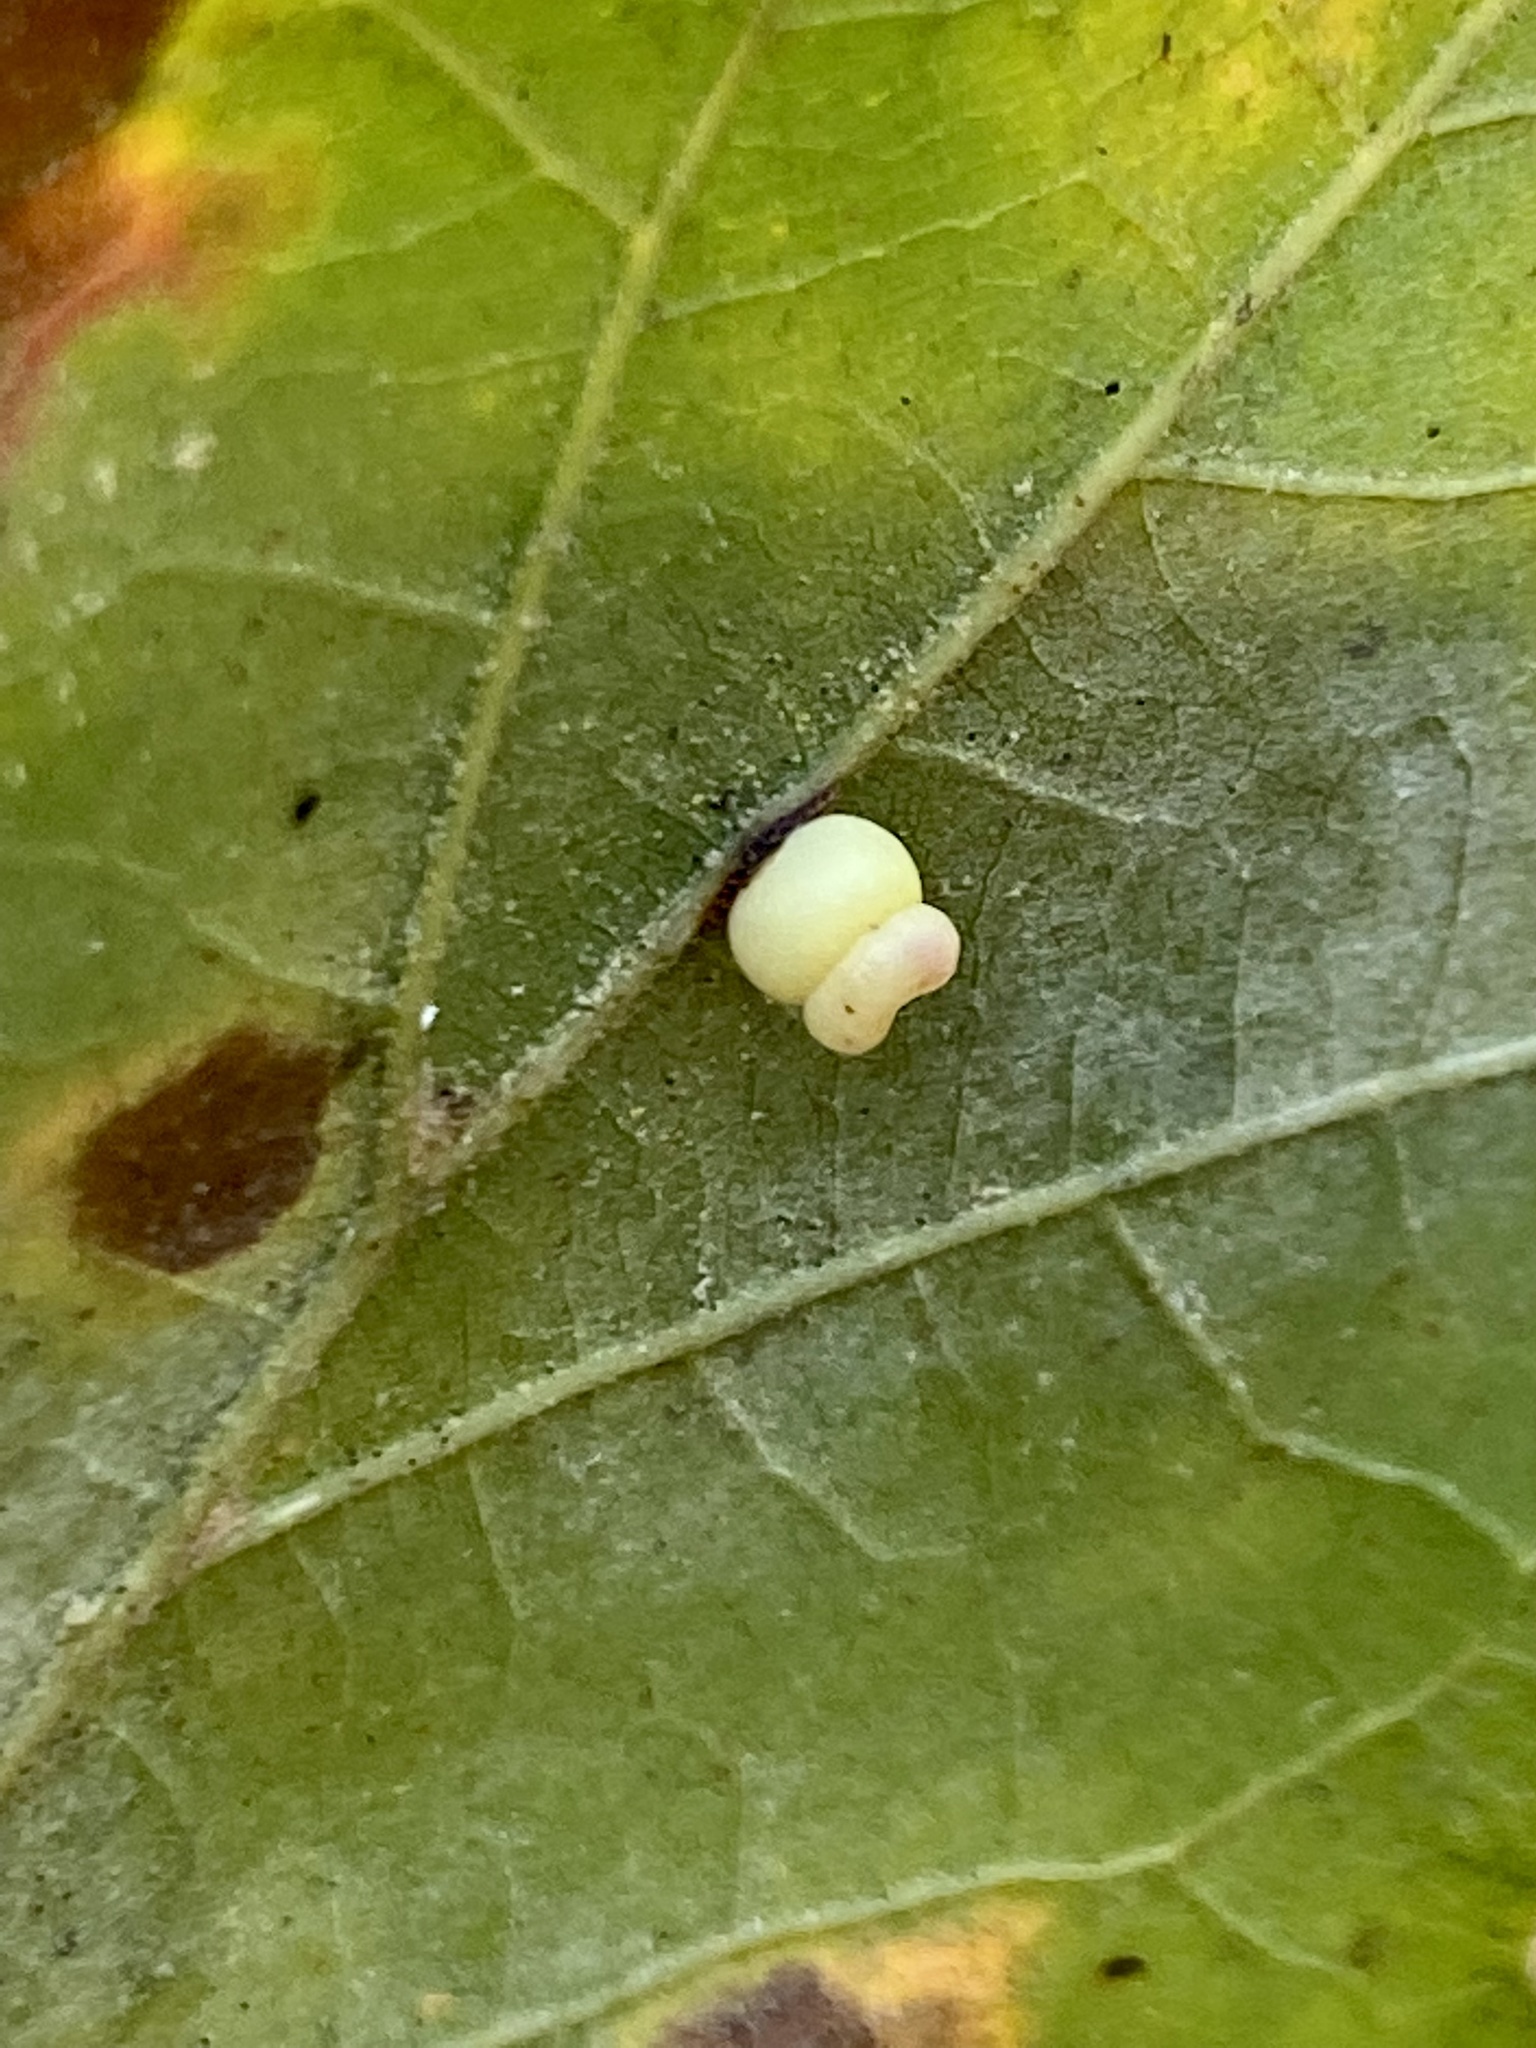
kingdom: Animalia
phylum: Arthropoda
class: Insecta
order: Hymenoptera
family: Cynipidae
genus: Kokkocynips
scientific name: Kokkocynips rileyi
